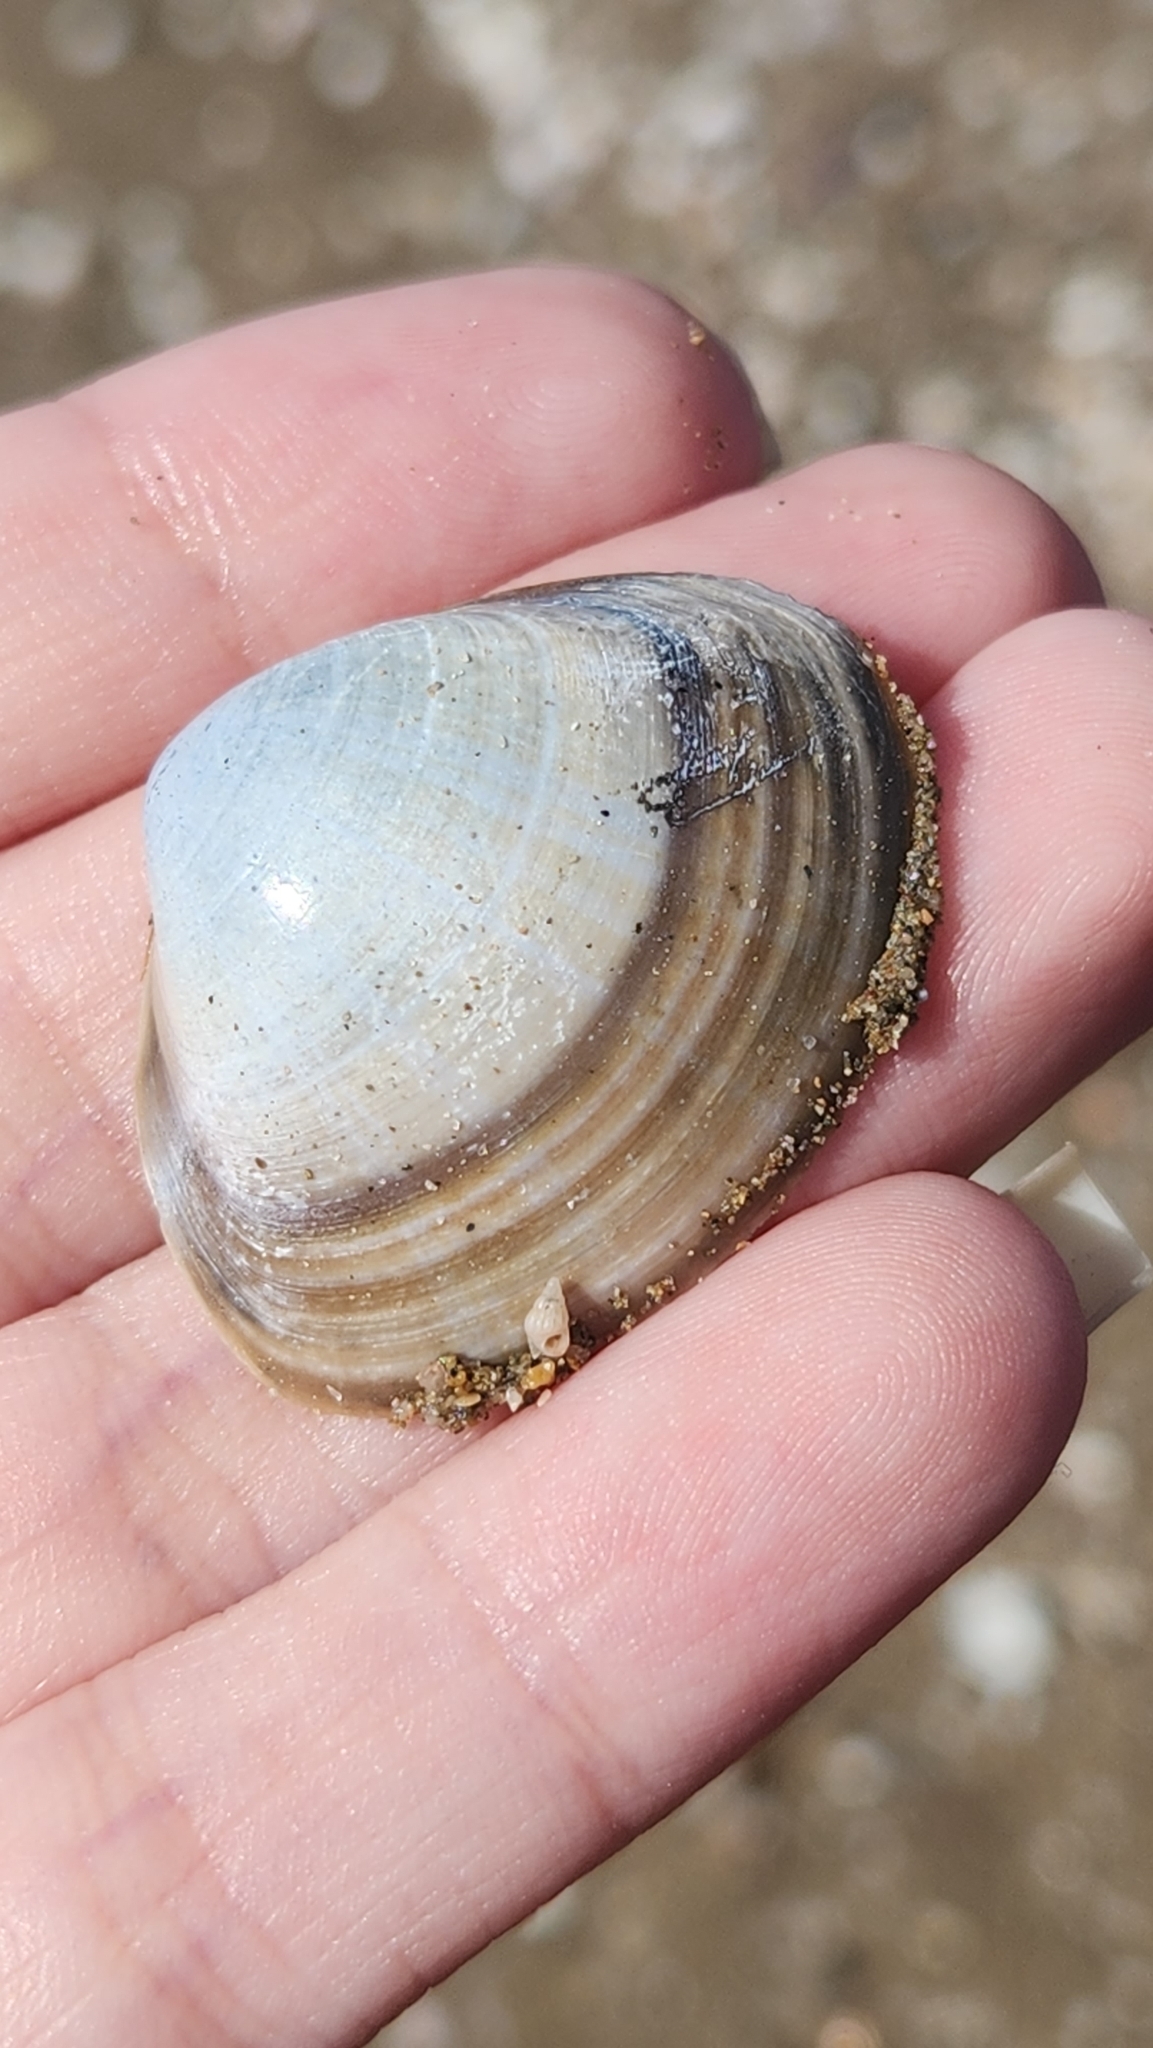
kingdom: Animalia
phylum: Mollusca
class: Bivalvia
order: Venerida
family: Mactridae
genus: Mactra
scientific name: Mactra stultorum
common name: Rayed trough shell
